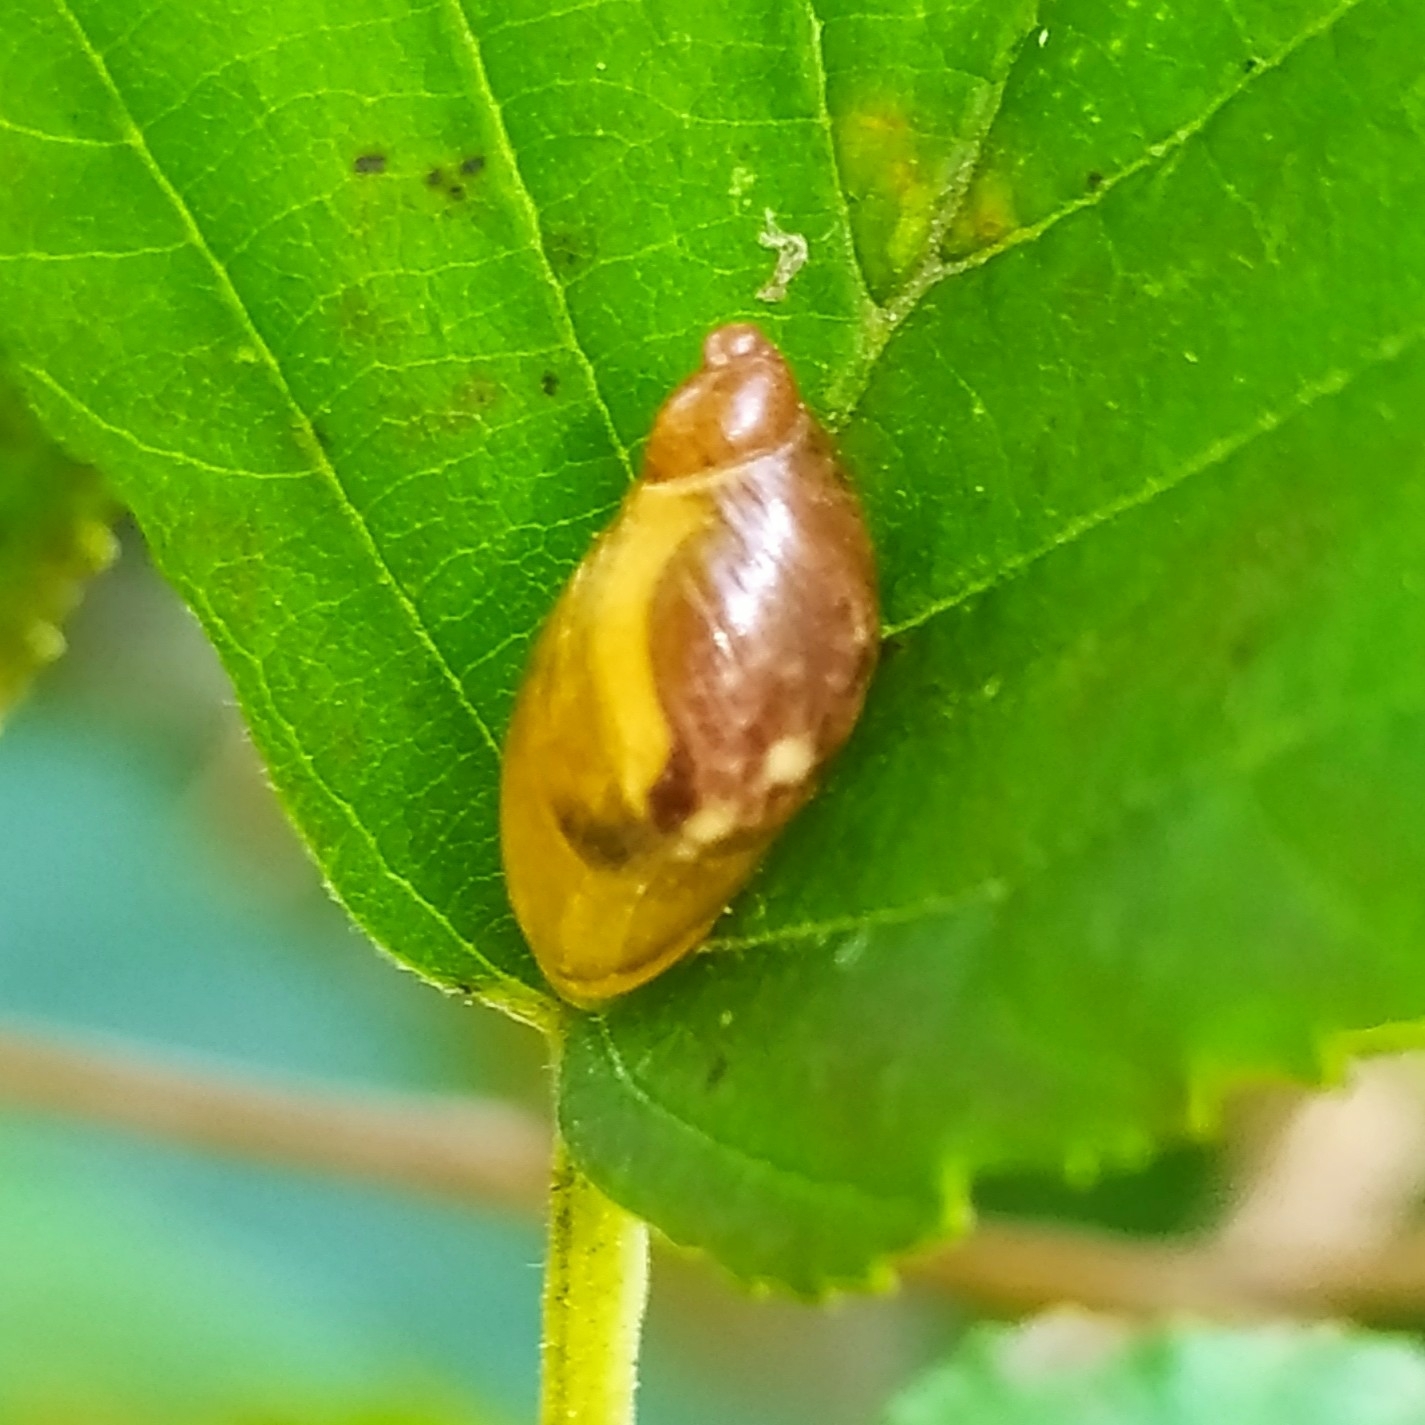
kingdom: Animalia
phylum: Mollusca
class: Gastropoda
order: Stylommatophora
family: Succineidae
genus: Succinea
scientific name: Succinea putris
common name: European ambersnail
